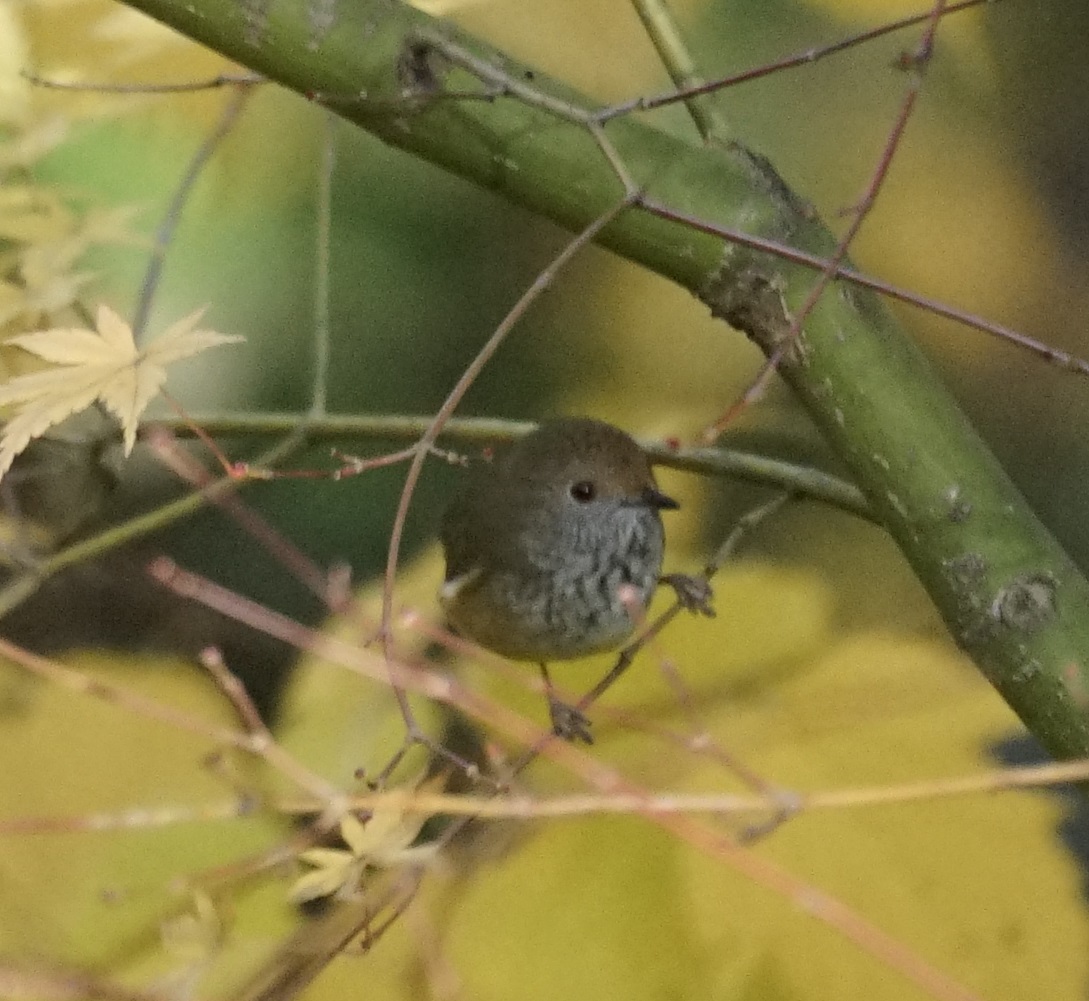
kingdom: Animalia
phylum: Chordata
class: Aves
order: Passeriformes
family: Acanthizidae
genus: Acanthiza
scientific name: Acanthiza pusilla
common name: Brown thornbill
